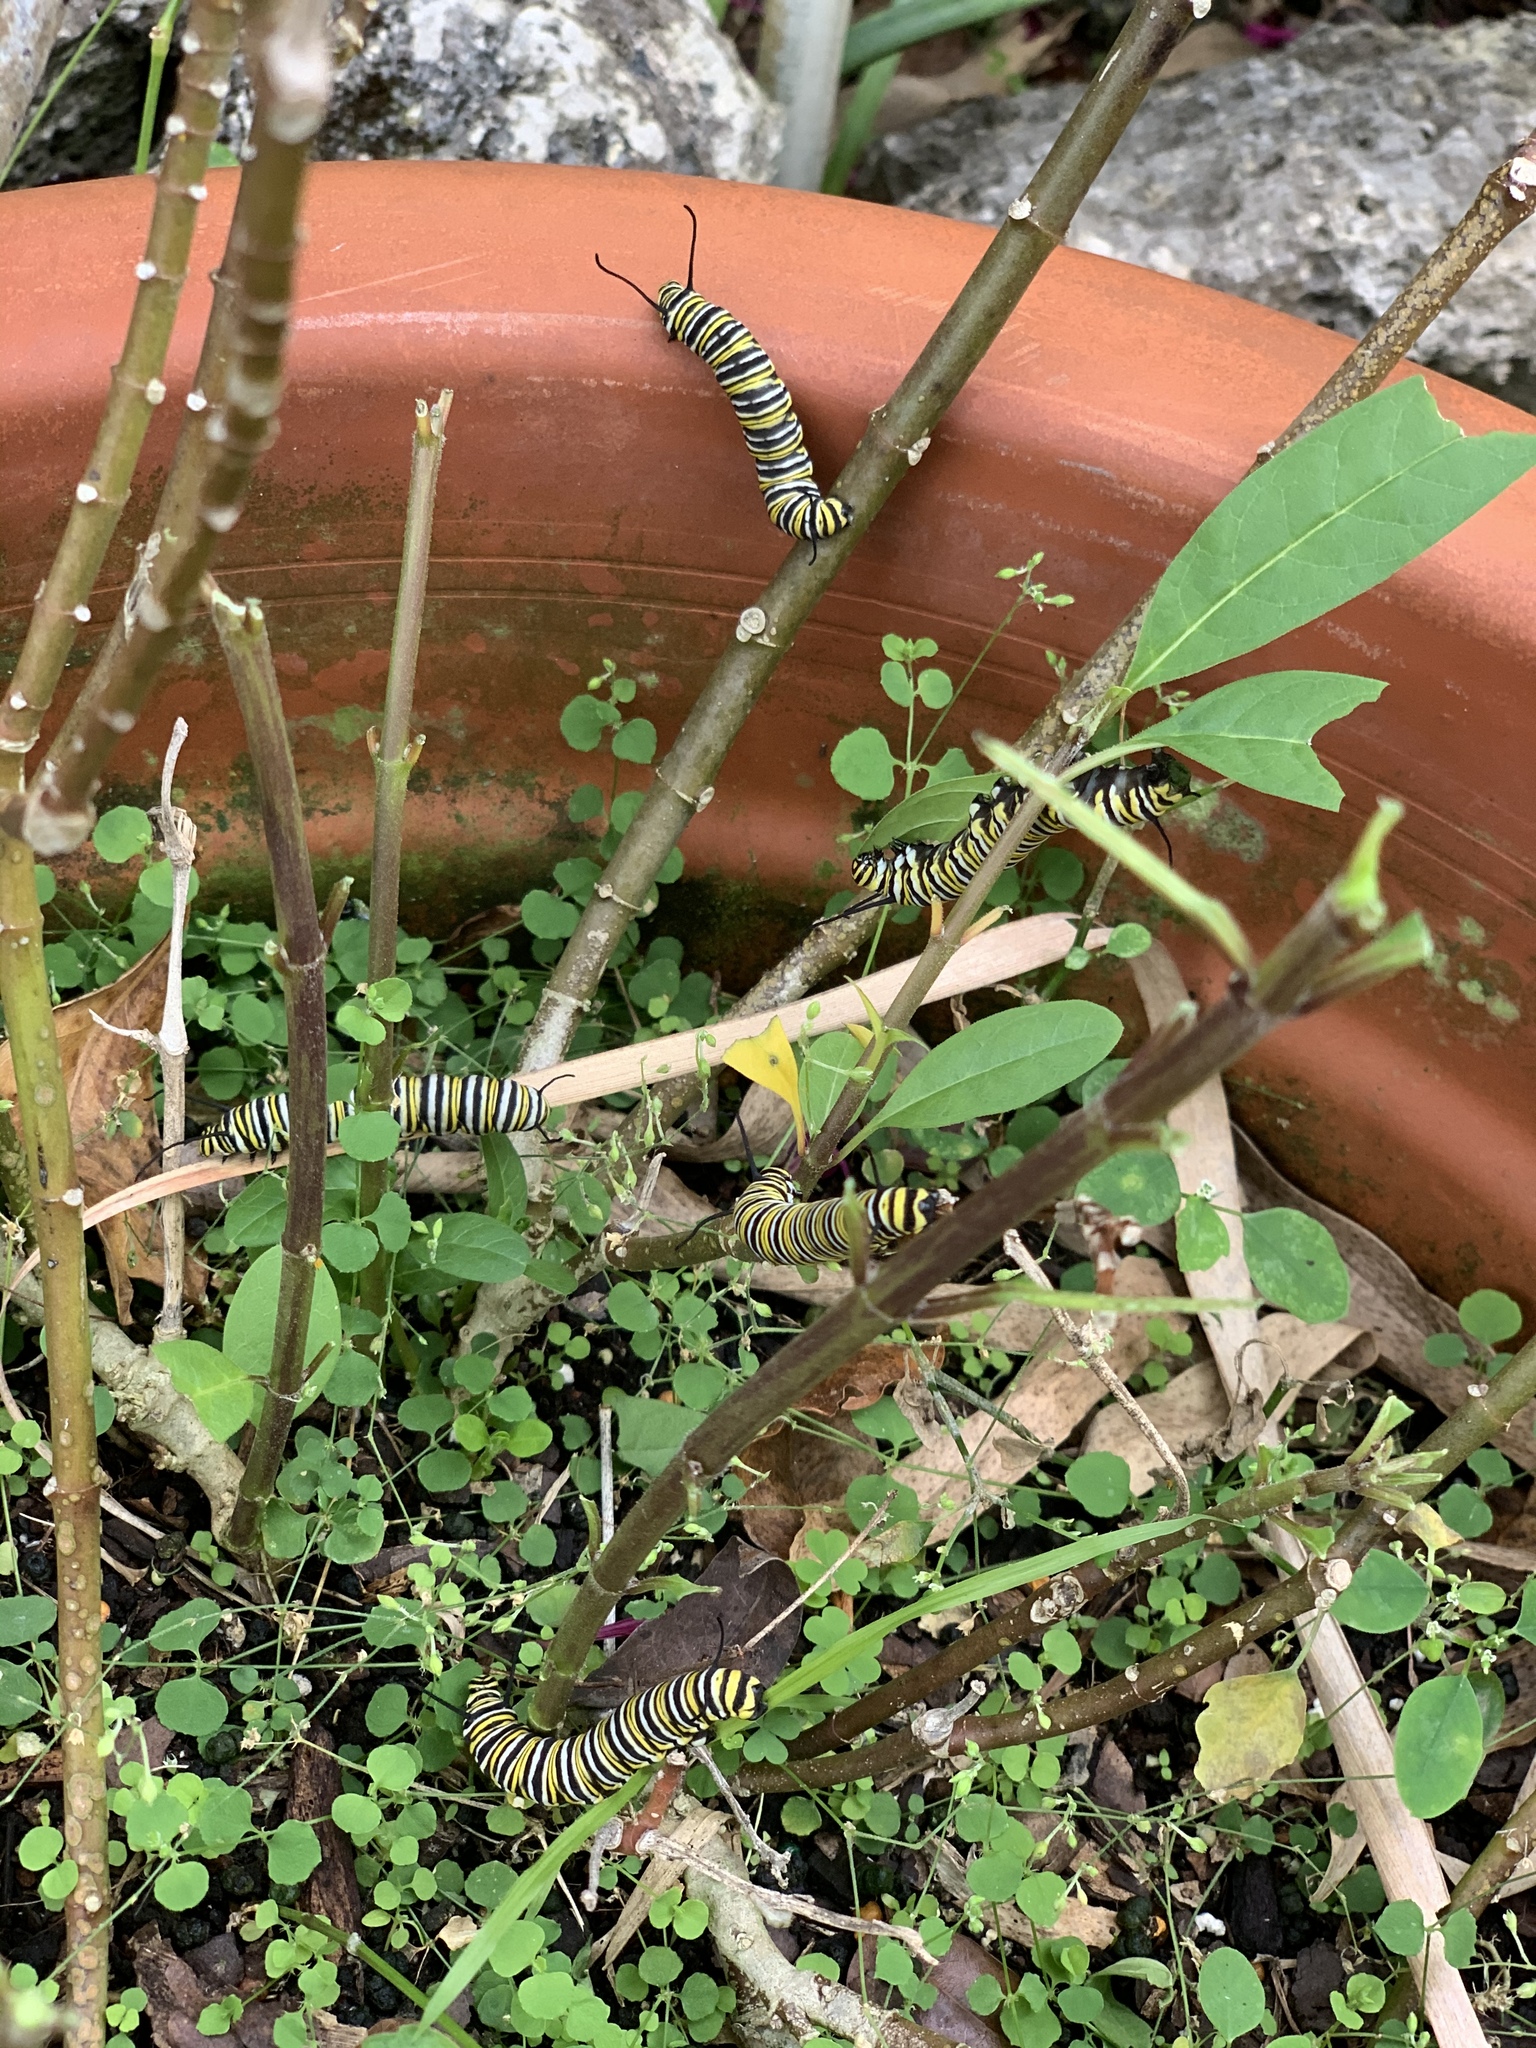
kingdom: Animalia
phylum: Arthropoda
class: Insecta
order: Lepidoptera
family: Nymphalidae
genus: Danaus
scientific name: Danaus plexippus
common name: Monarch
